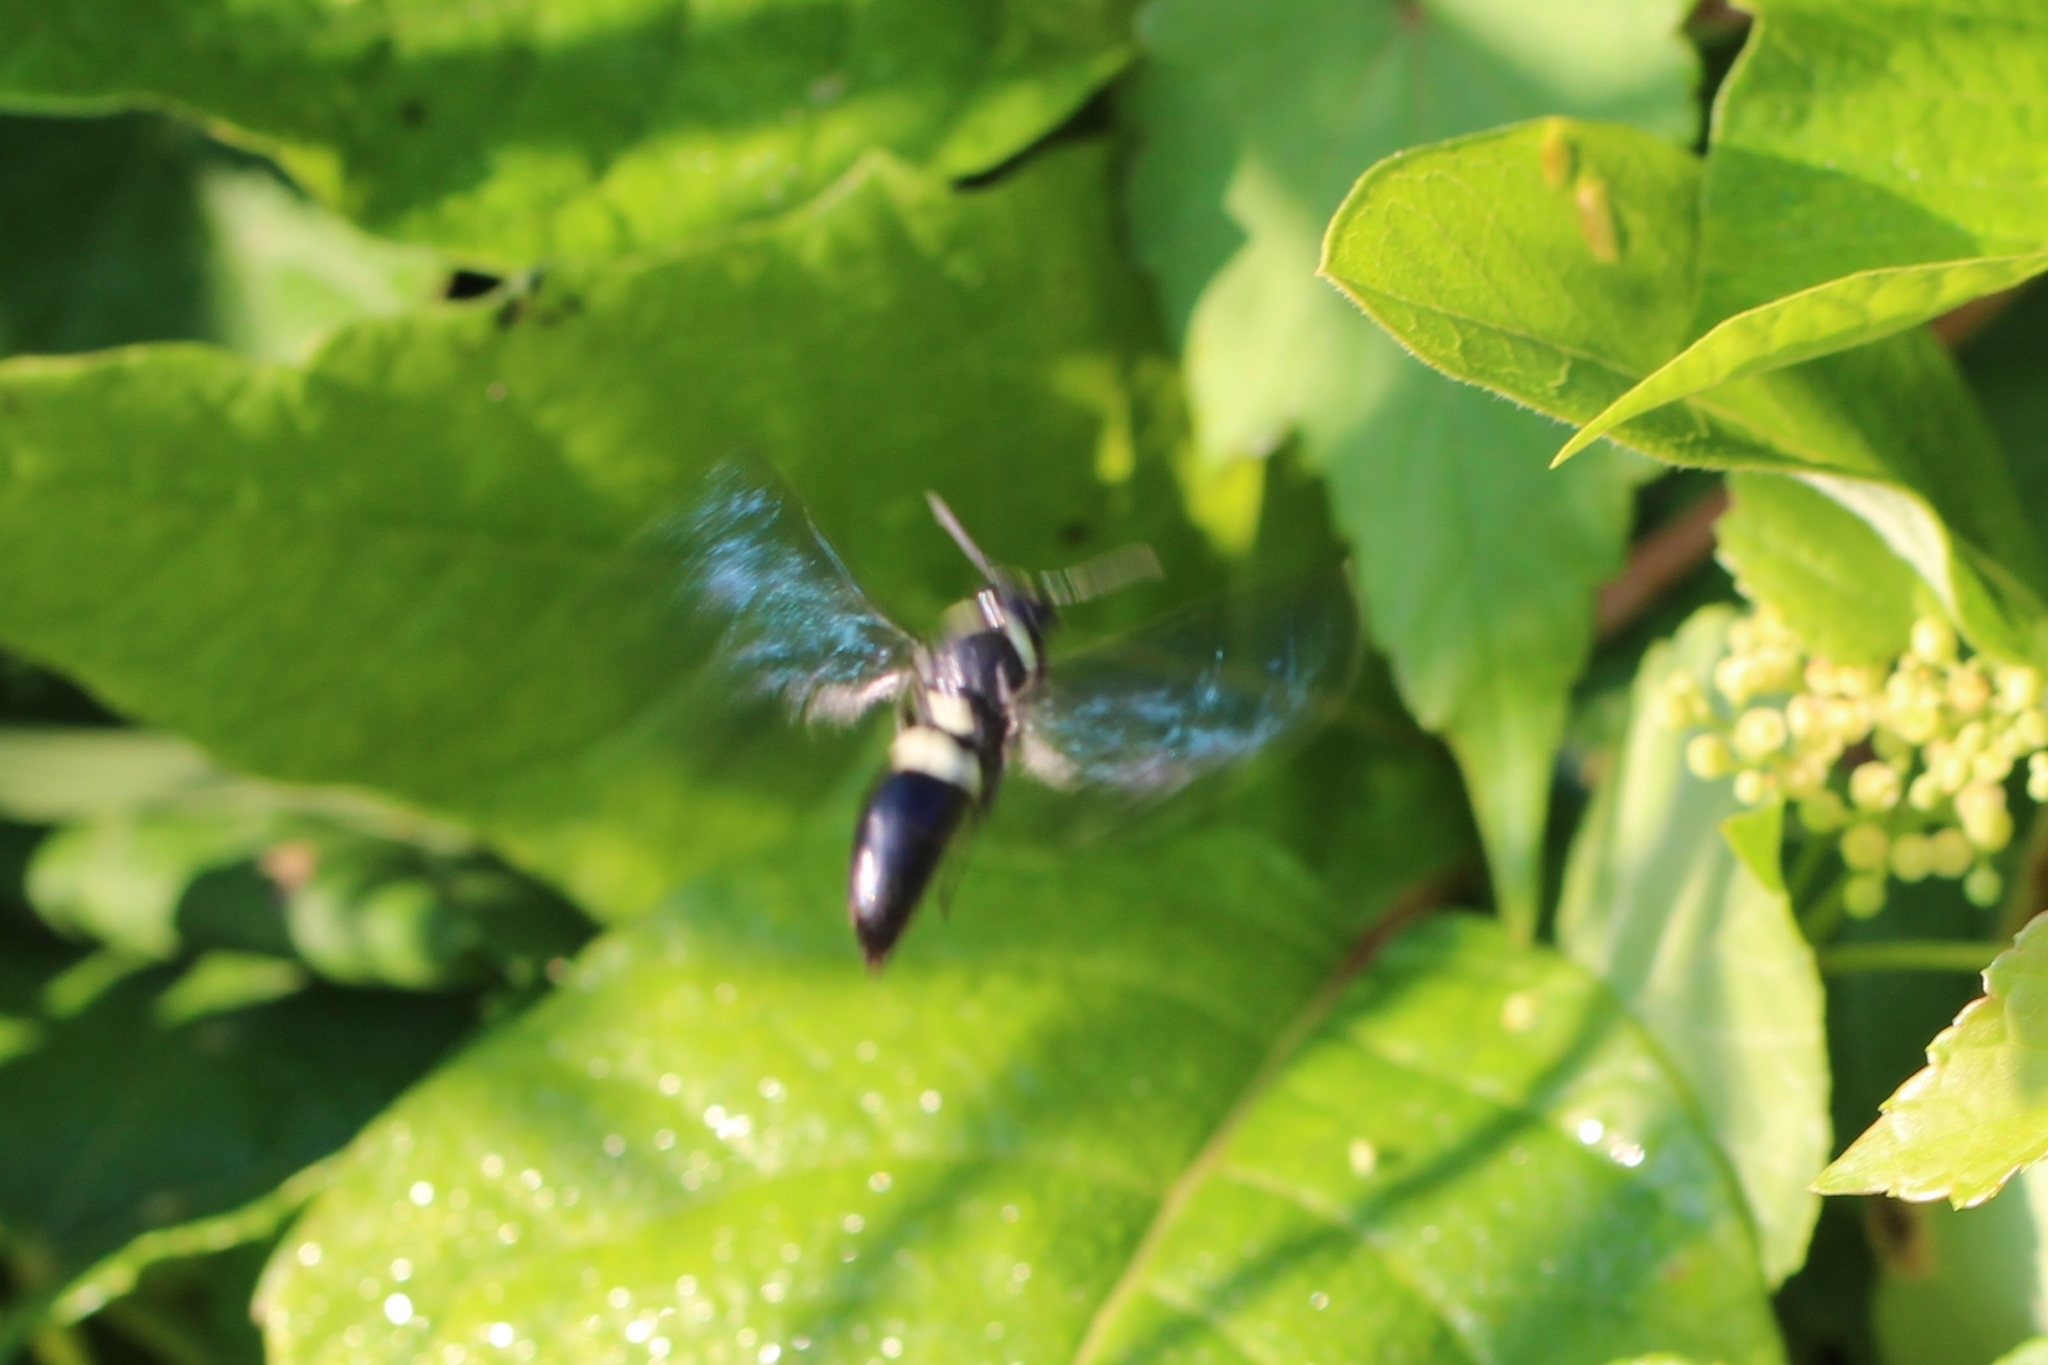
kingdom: Animalia
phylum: Arthropoda
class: Insecta
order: Hymenoptera
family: Eumenidae
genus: Monobia
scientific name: Monobia quadridens
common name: Four-toothed mason wasp
